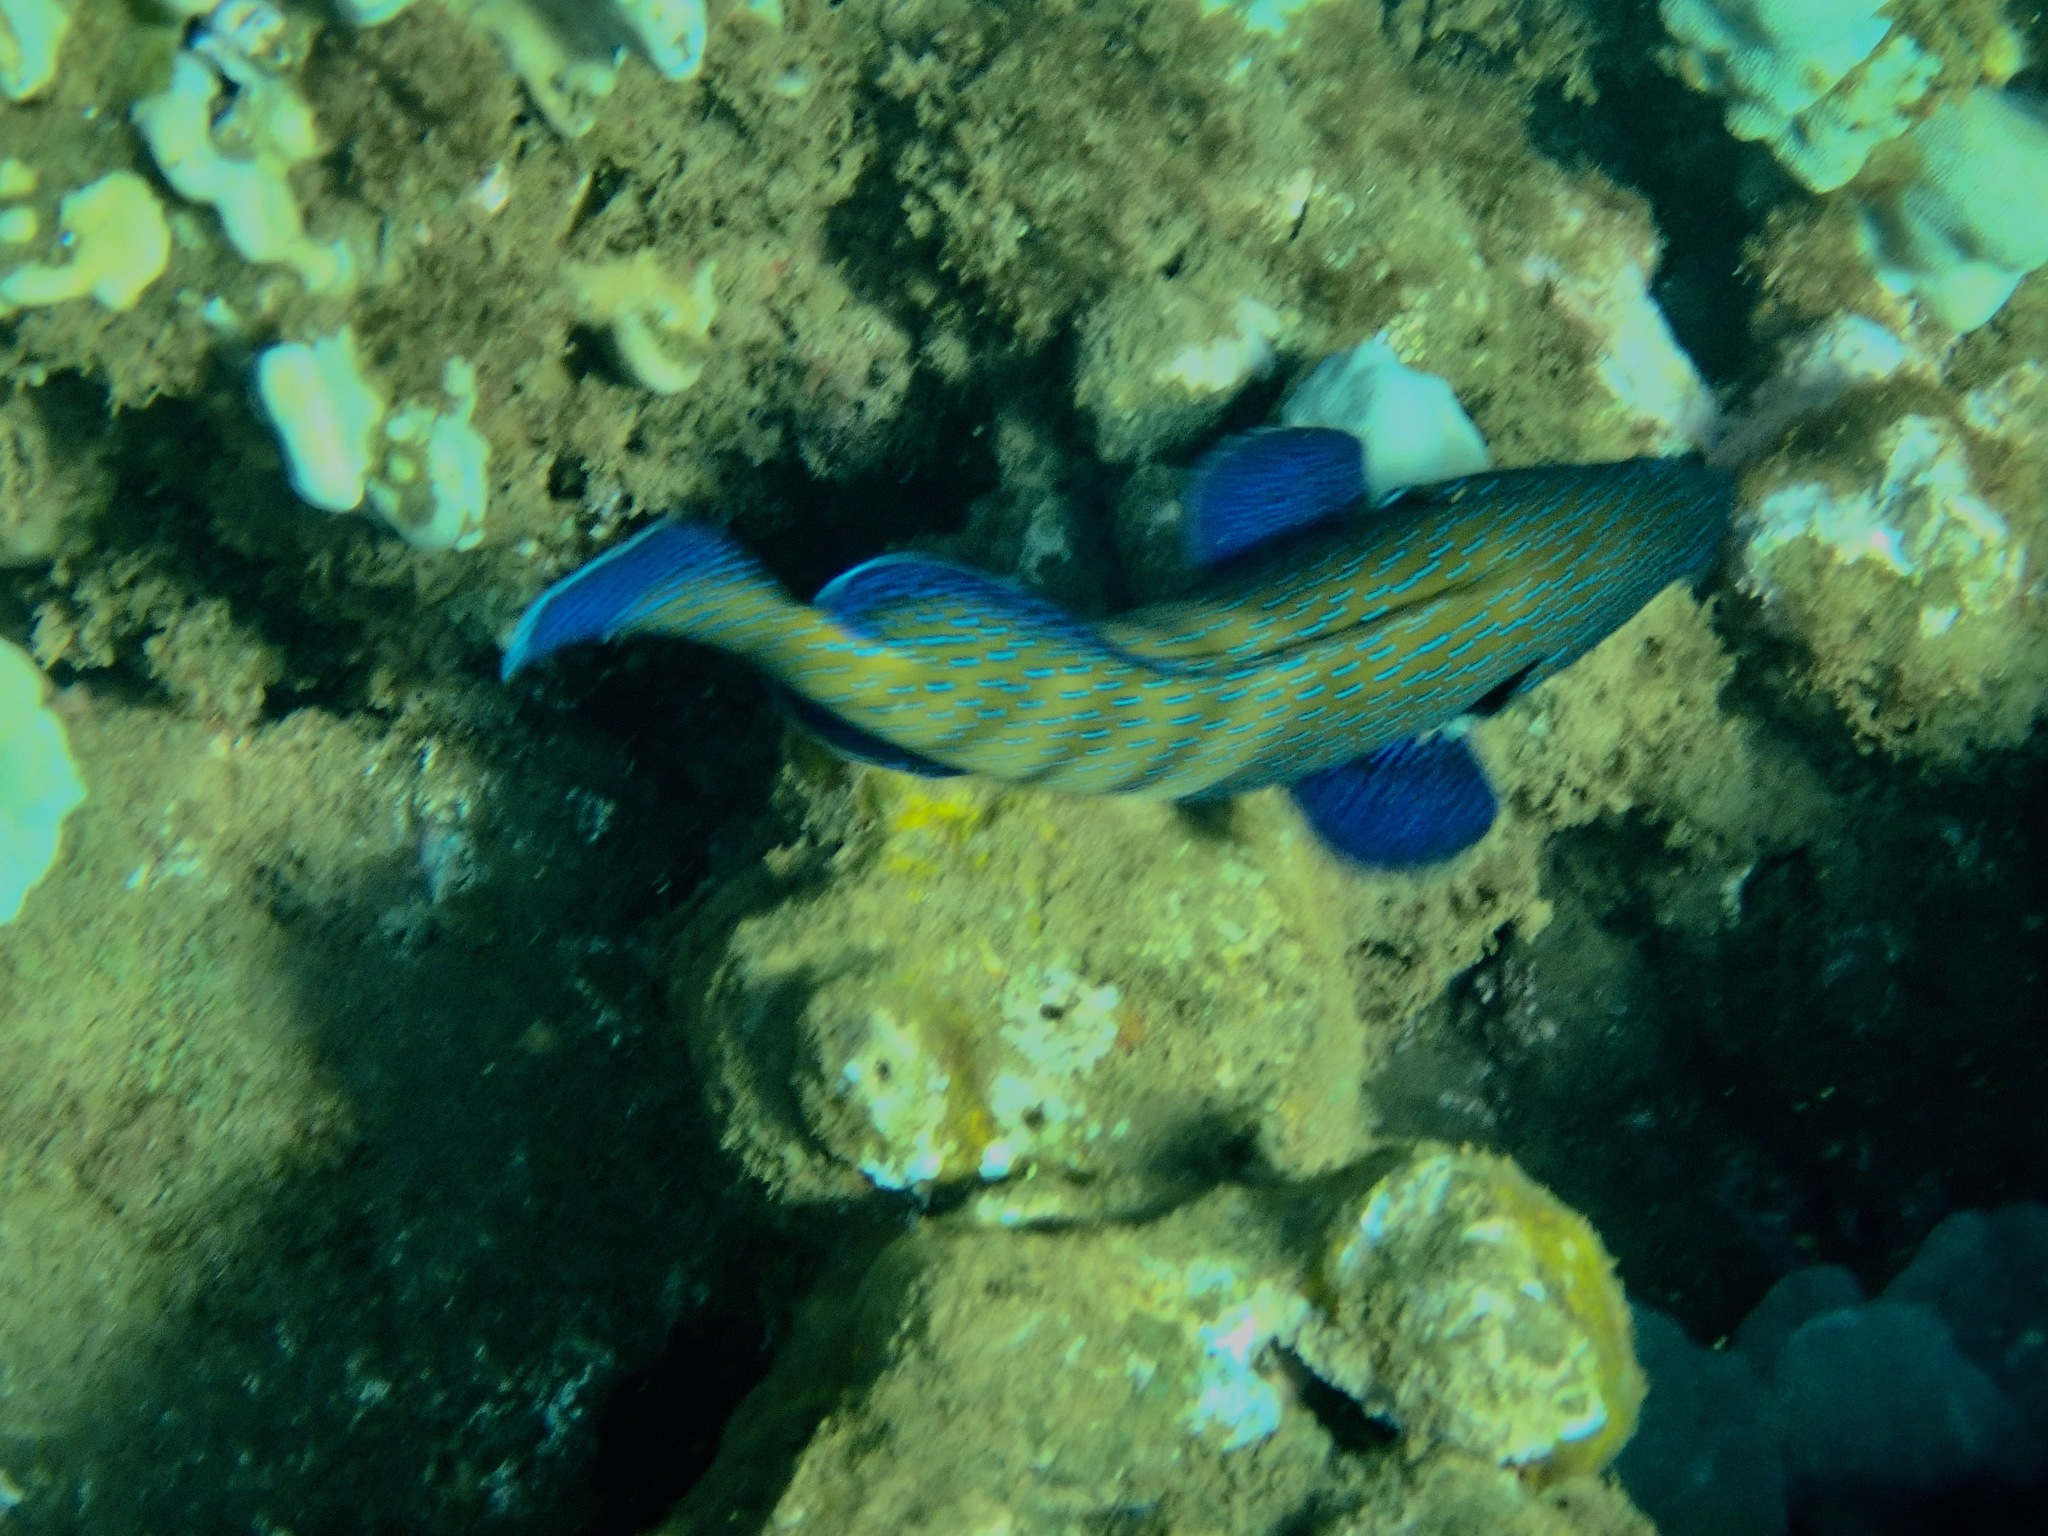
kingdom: Animalia
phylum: Chordata
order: Perciformes
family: Serranidae
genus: Cephalopholis
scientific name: Cephalopholis argus
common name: Peacock grouper
